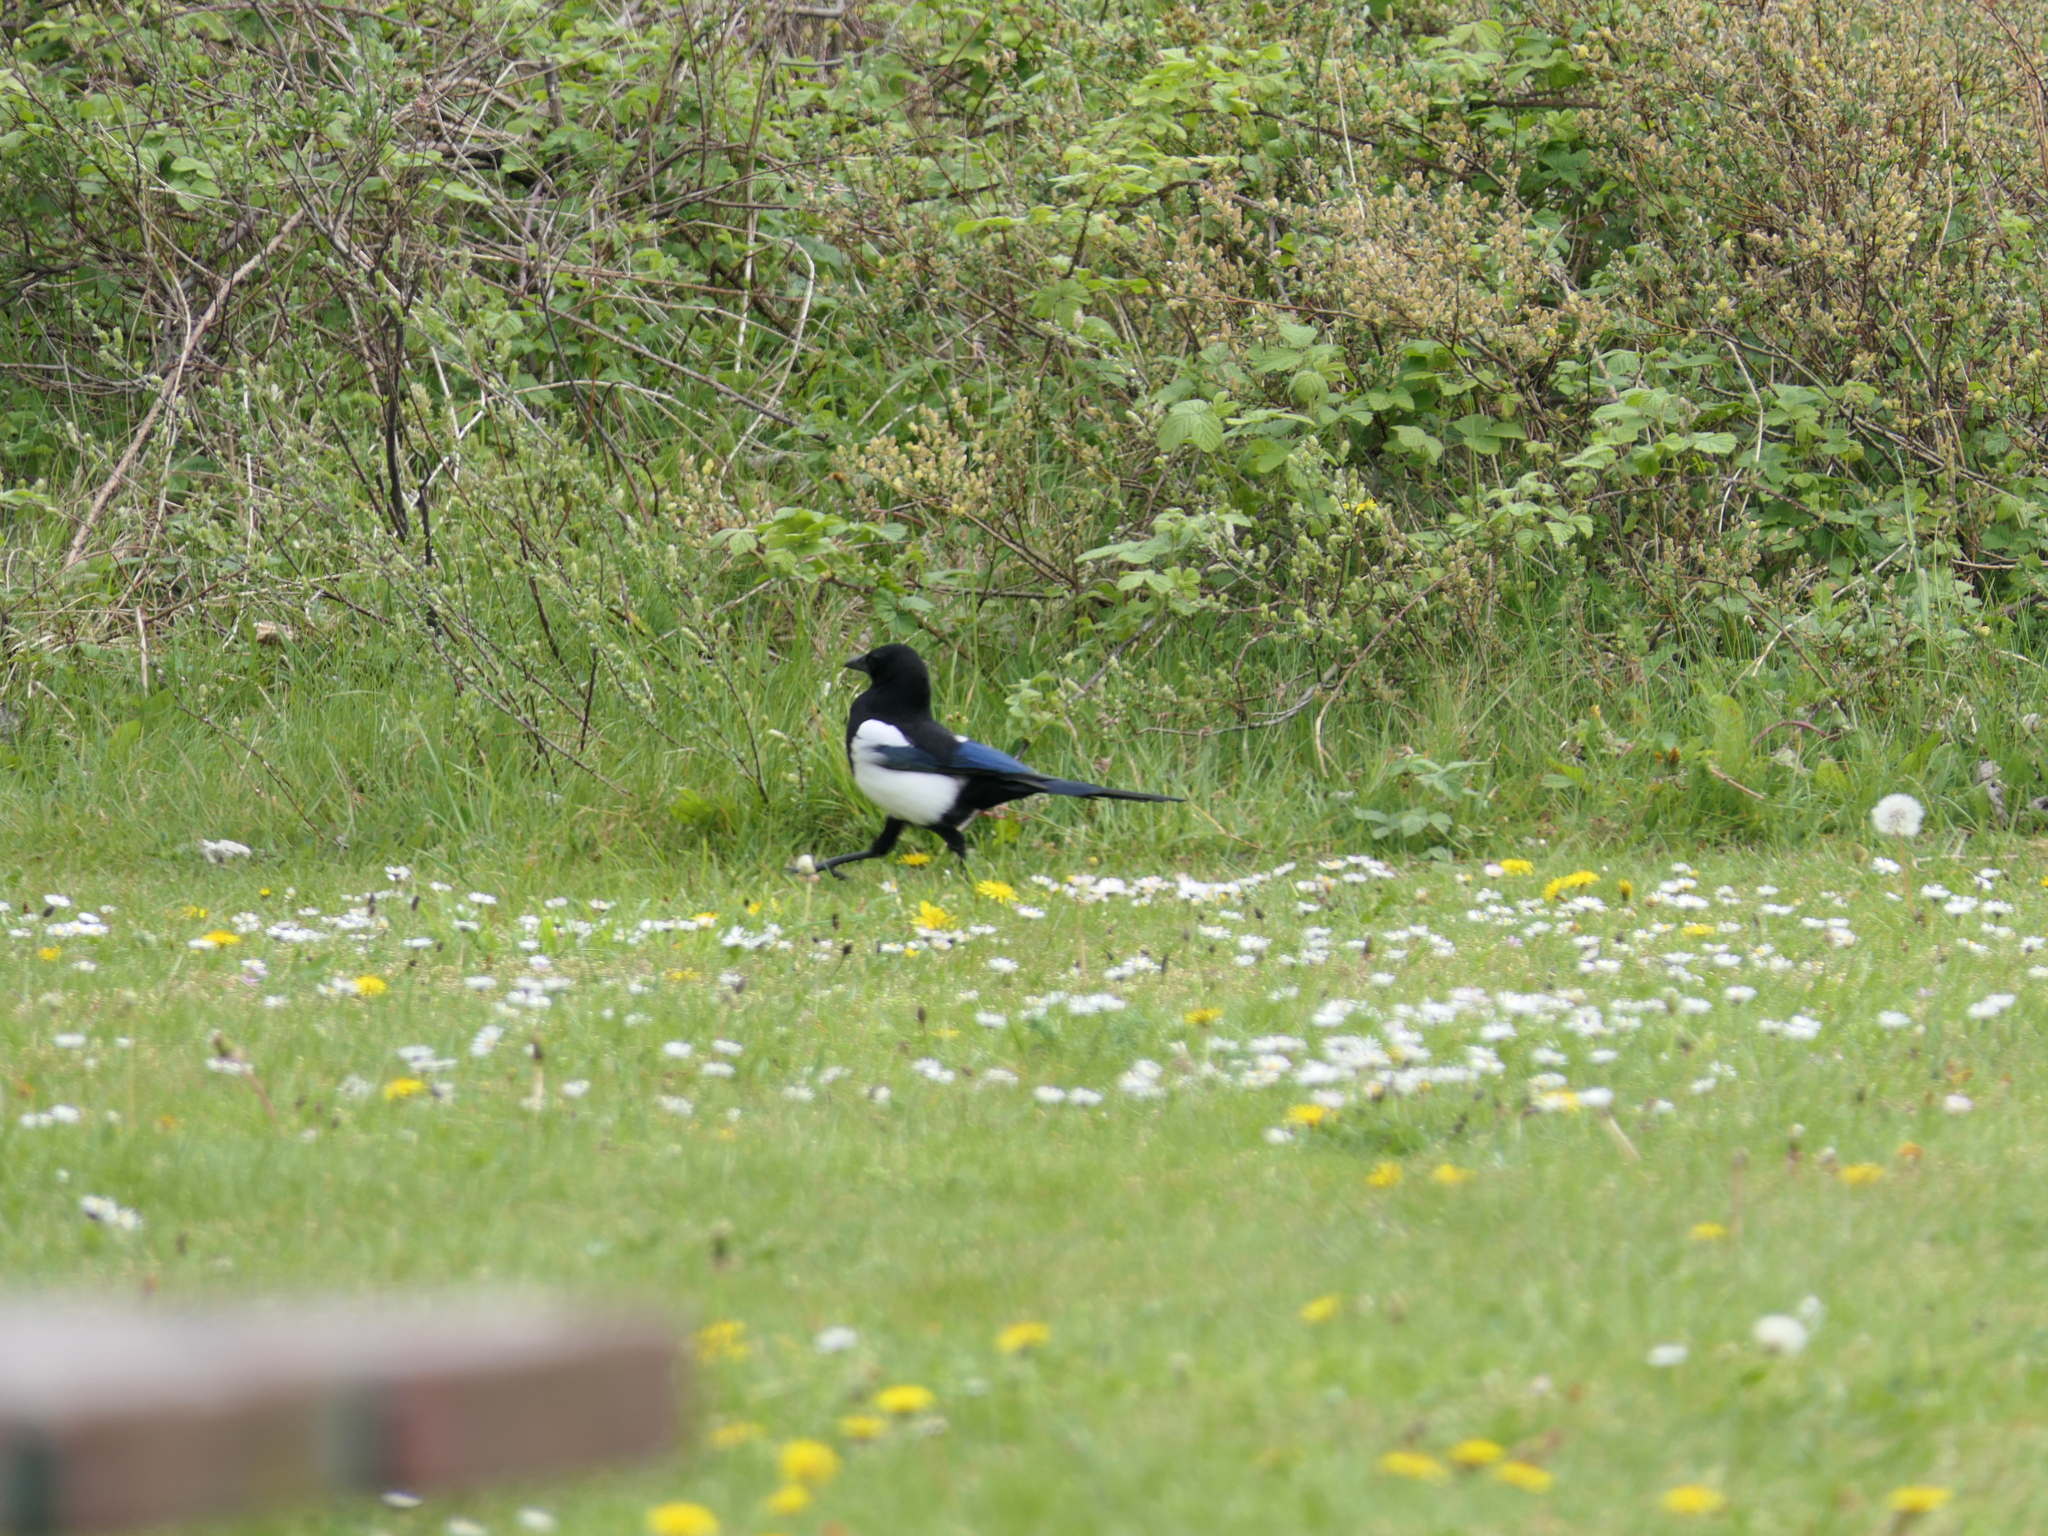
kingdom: Animalia
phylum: Chordata
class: Aves
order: Passeriformes
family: Corvidae
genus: Pica
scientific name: Pica pica
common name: Eurasian magpie
